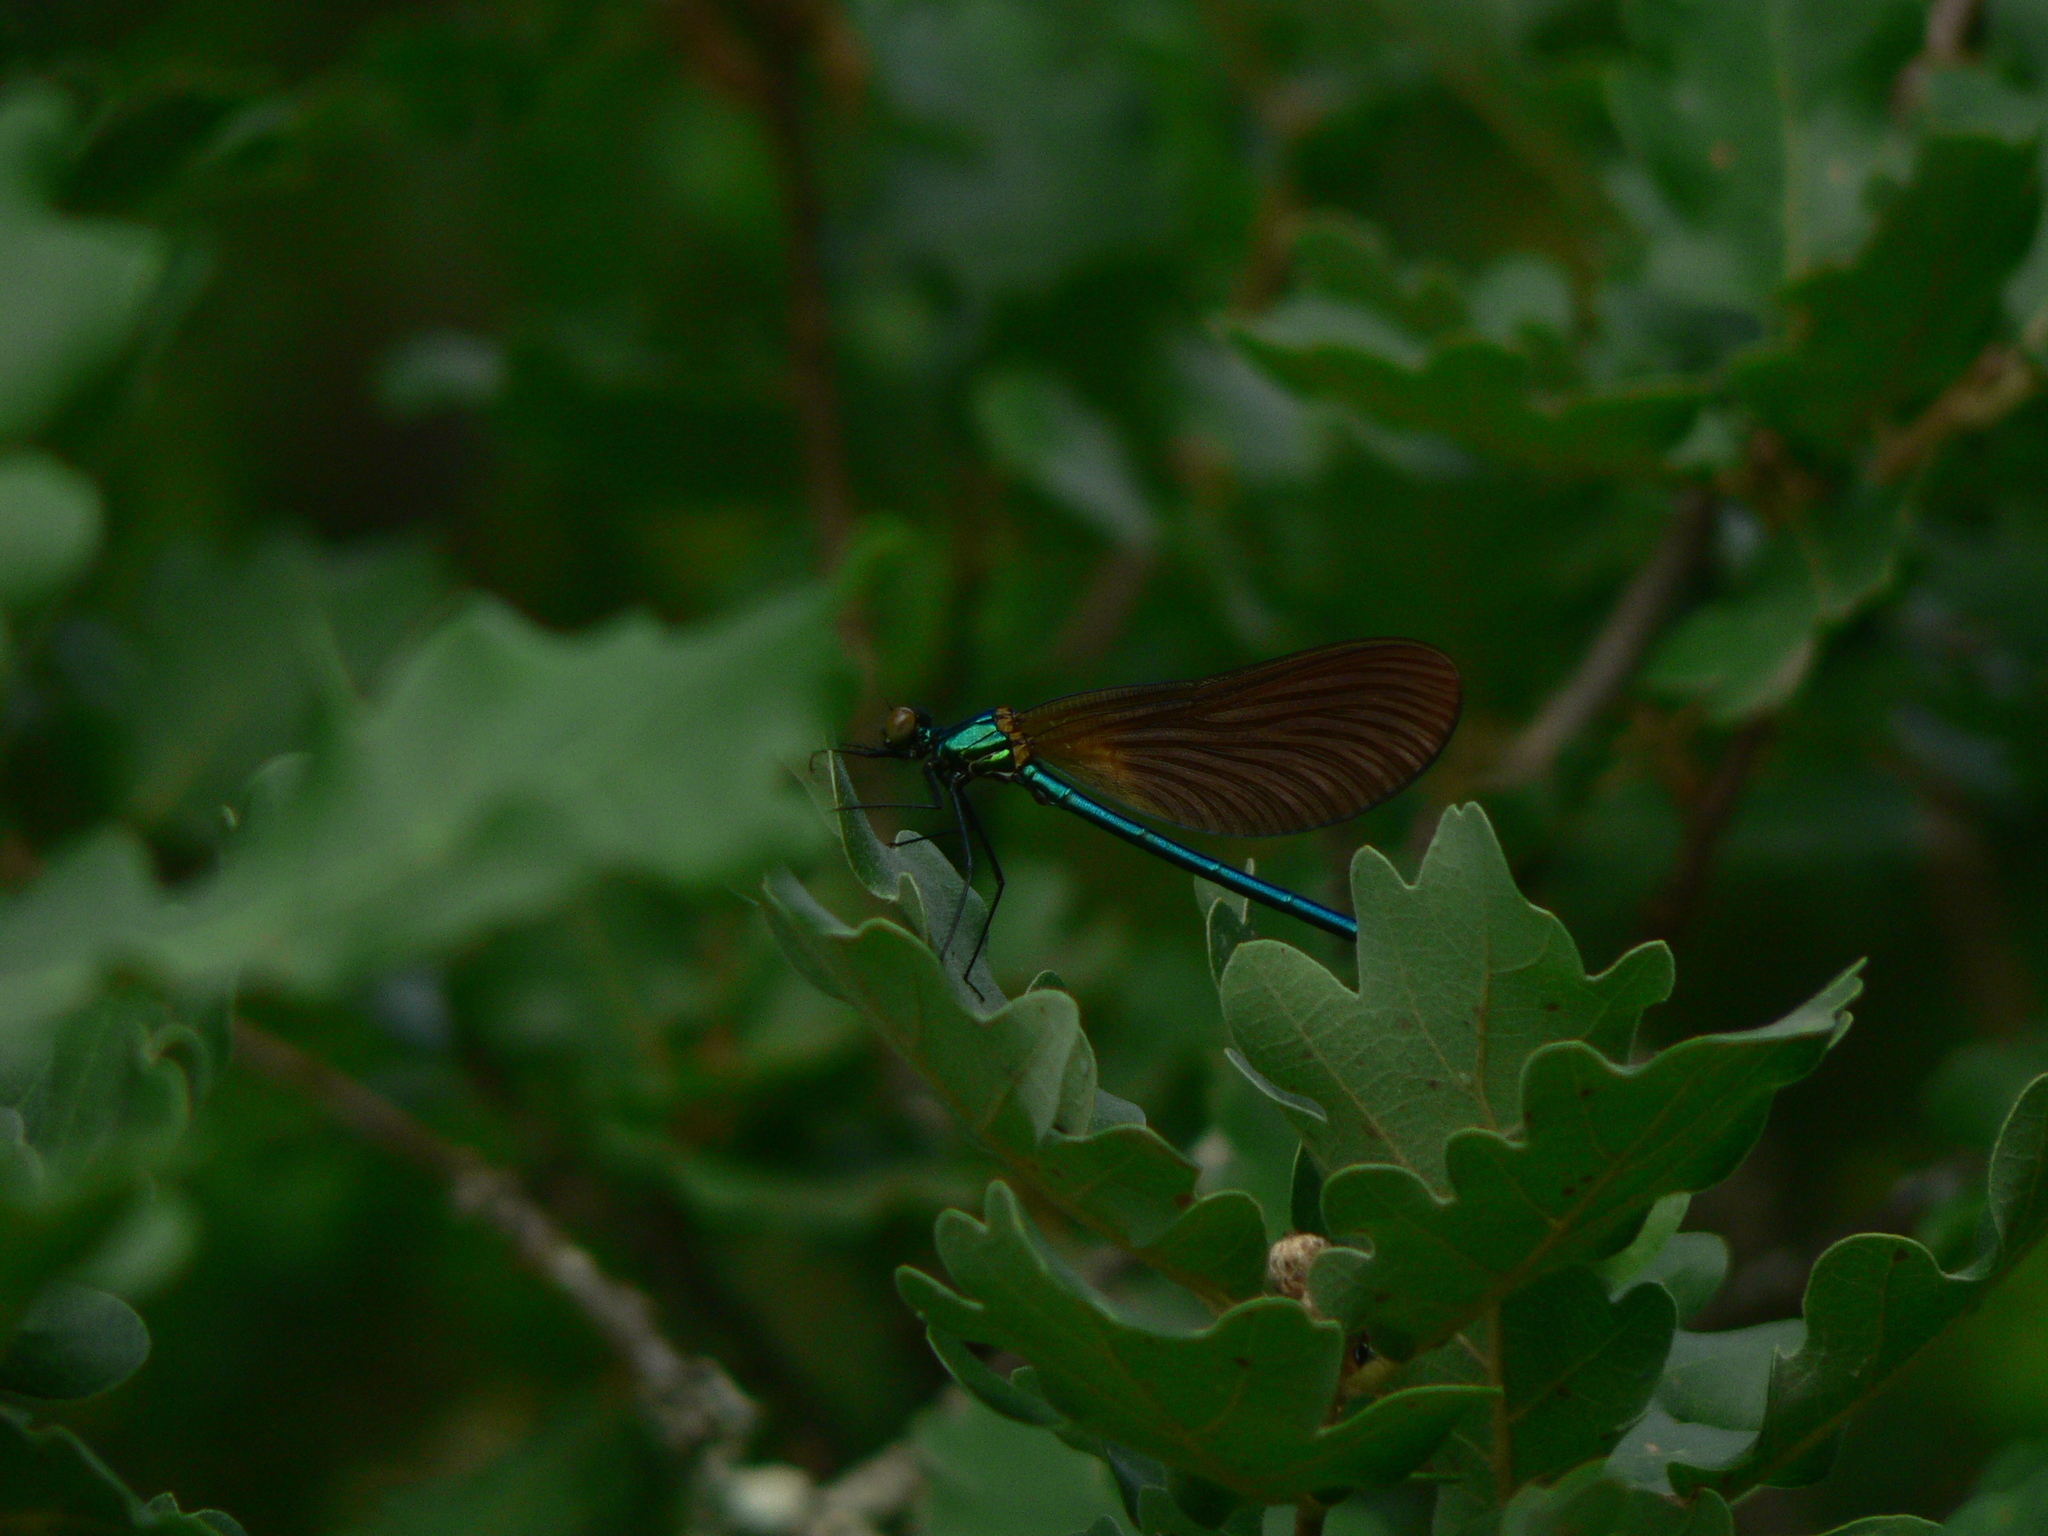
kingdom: Animalia
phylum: Arthropoda
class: Insecta
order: Odonata
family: Calopterygidae
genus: Calopteryx
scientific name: Calopteryx virgo
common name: Beautiful demoiselle
